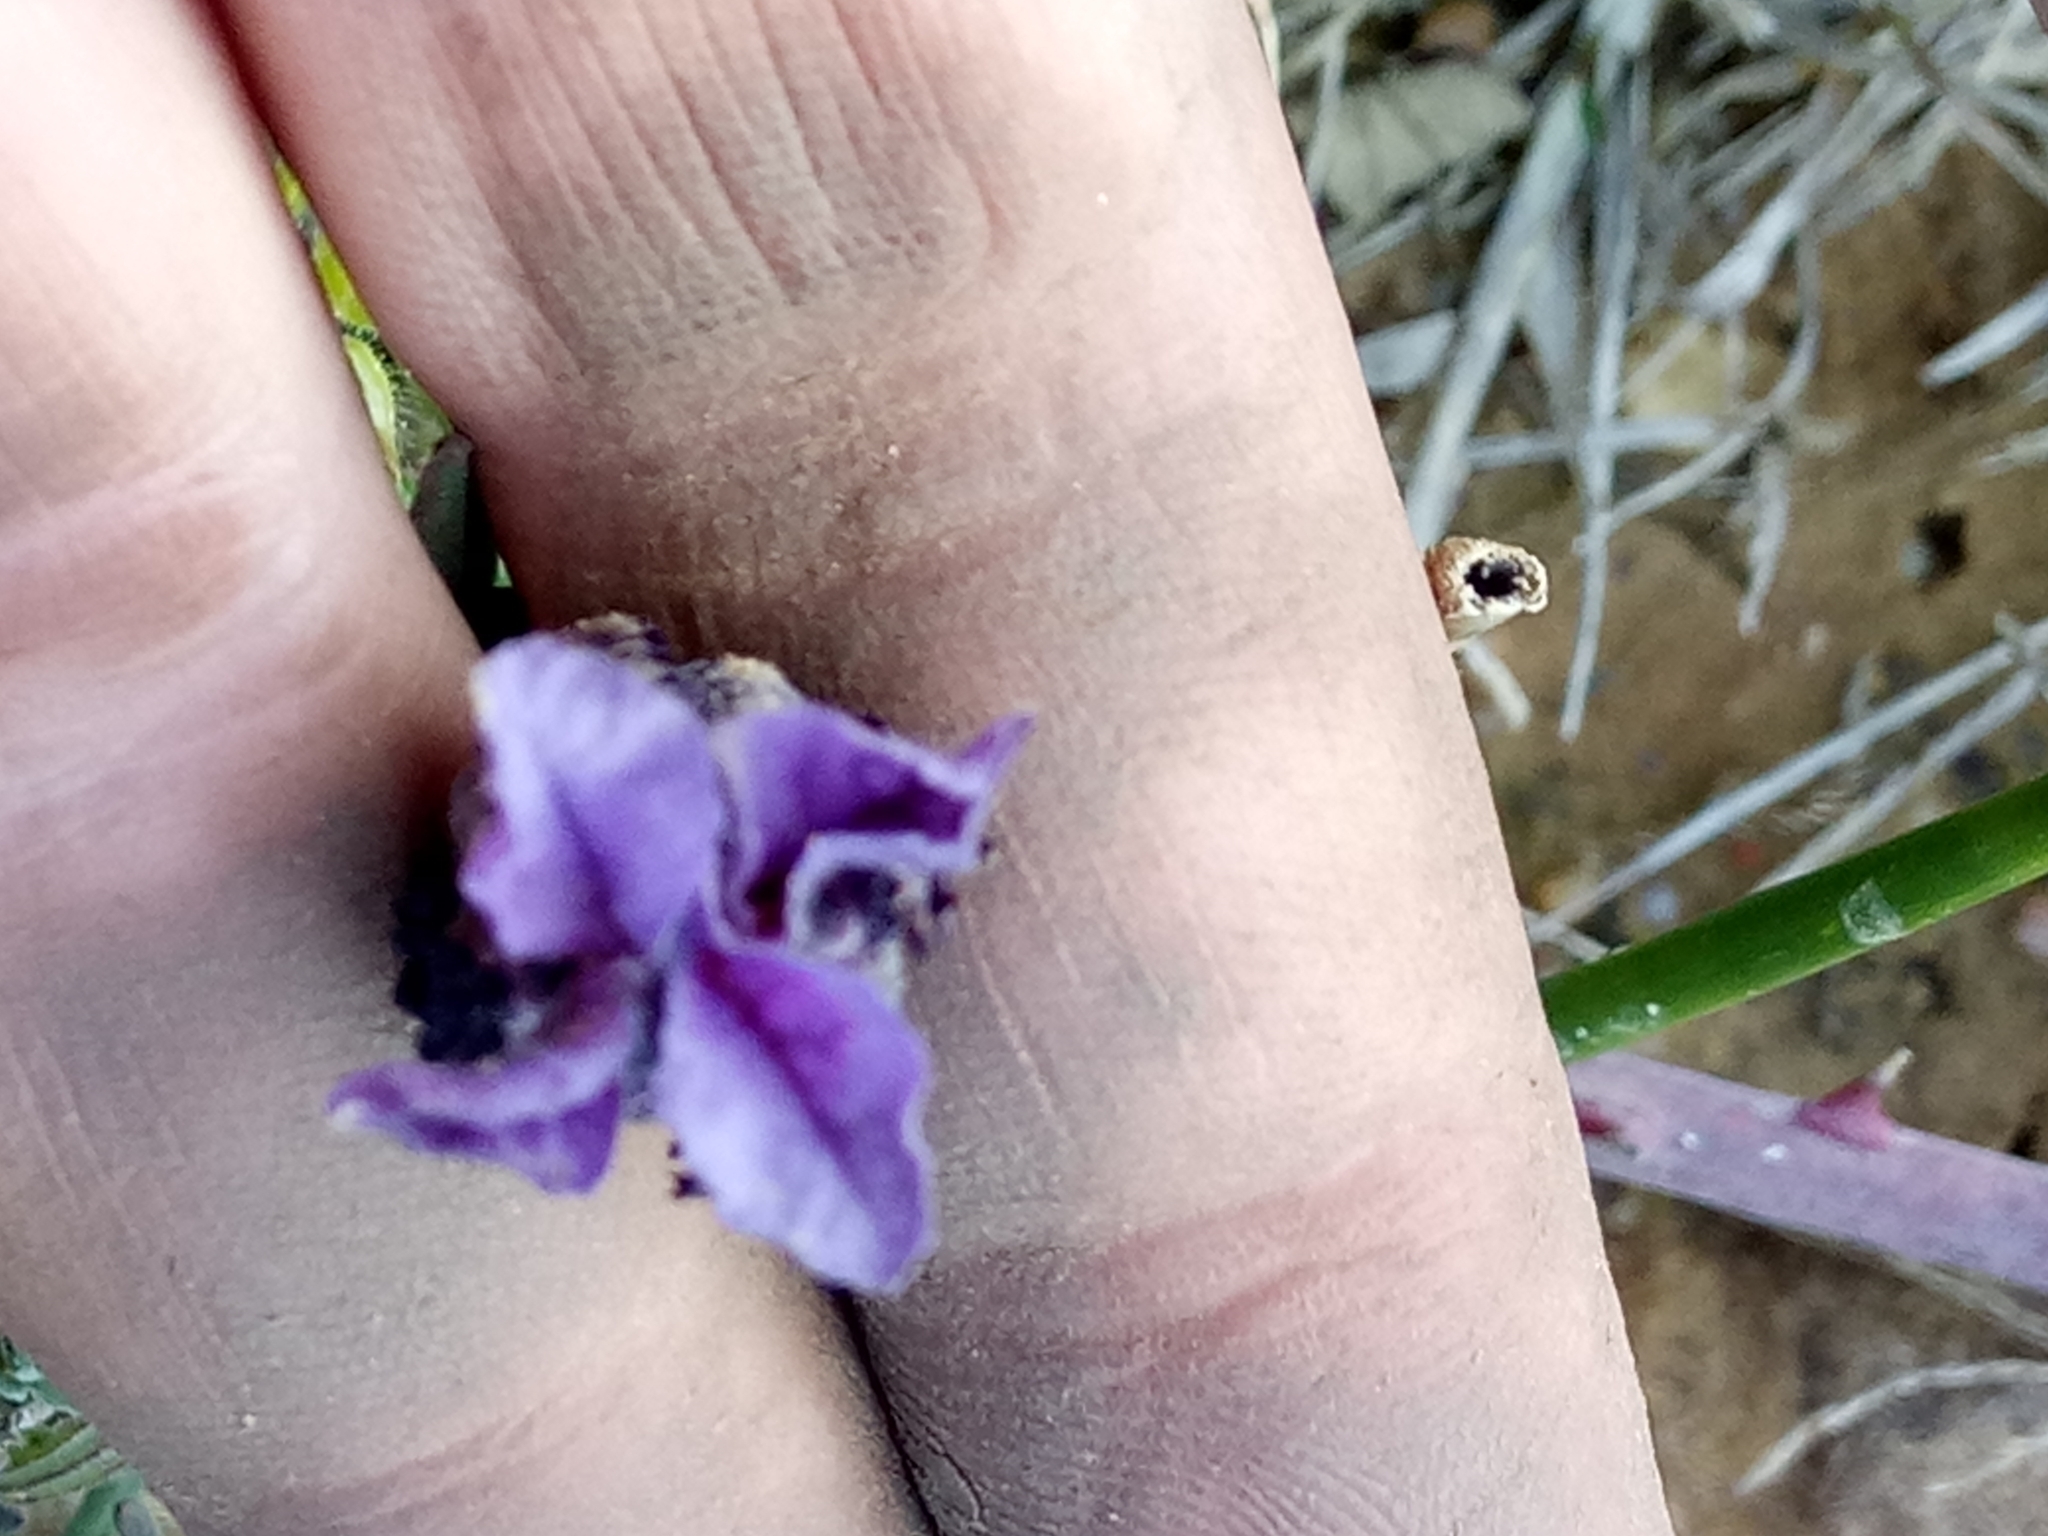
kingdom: Plantae
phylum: Tracheophyta
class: Magnoliopsida
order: Lamiales
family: Lamiaceae
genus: Lavandula
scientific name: Lavandula stoechas
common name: French lavender
